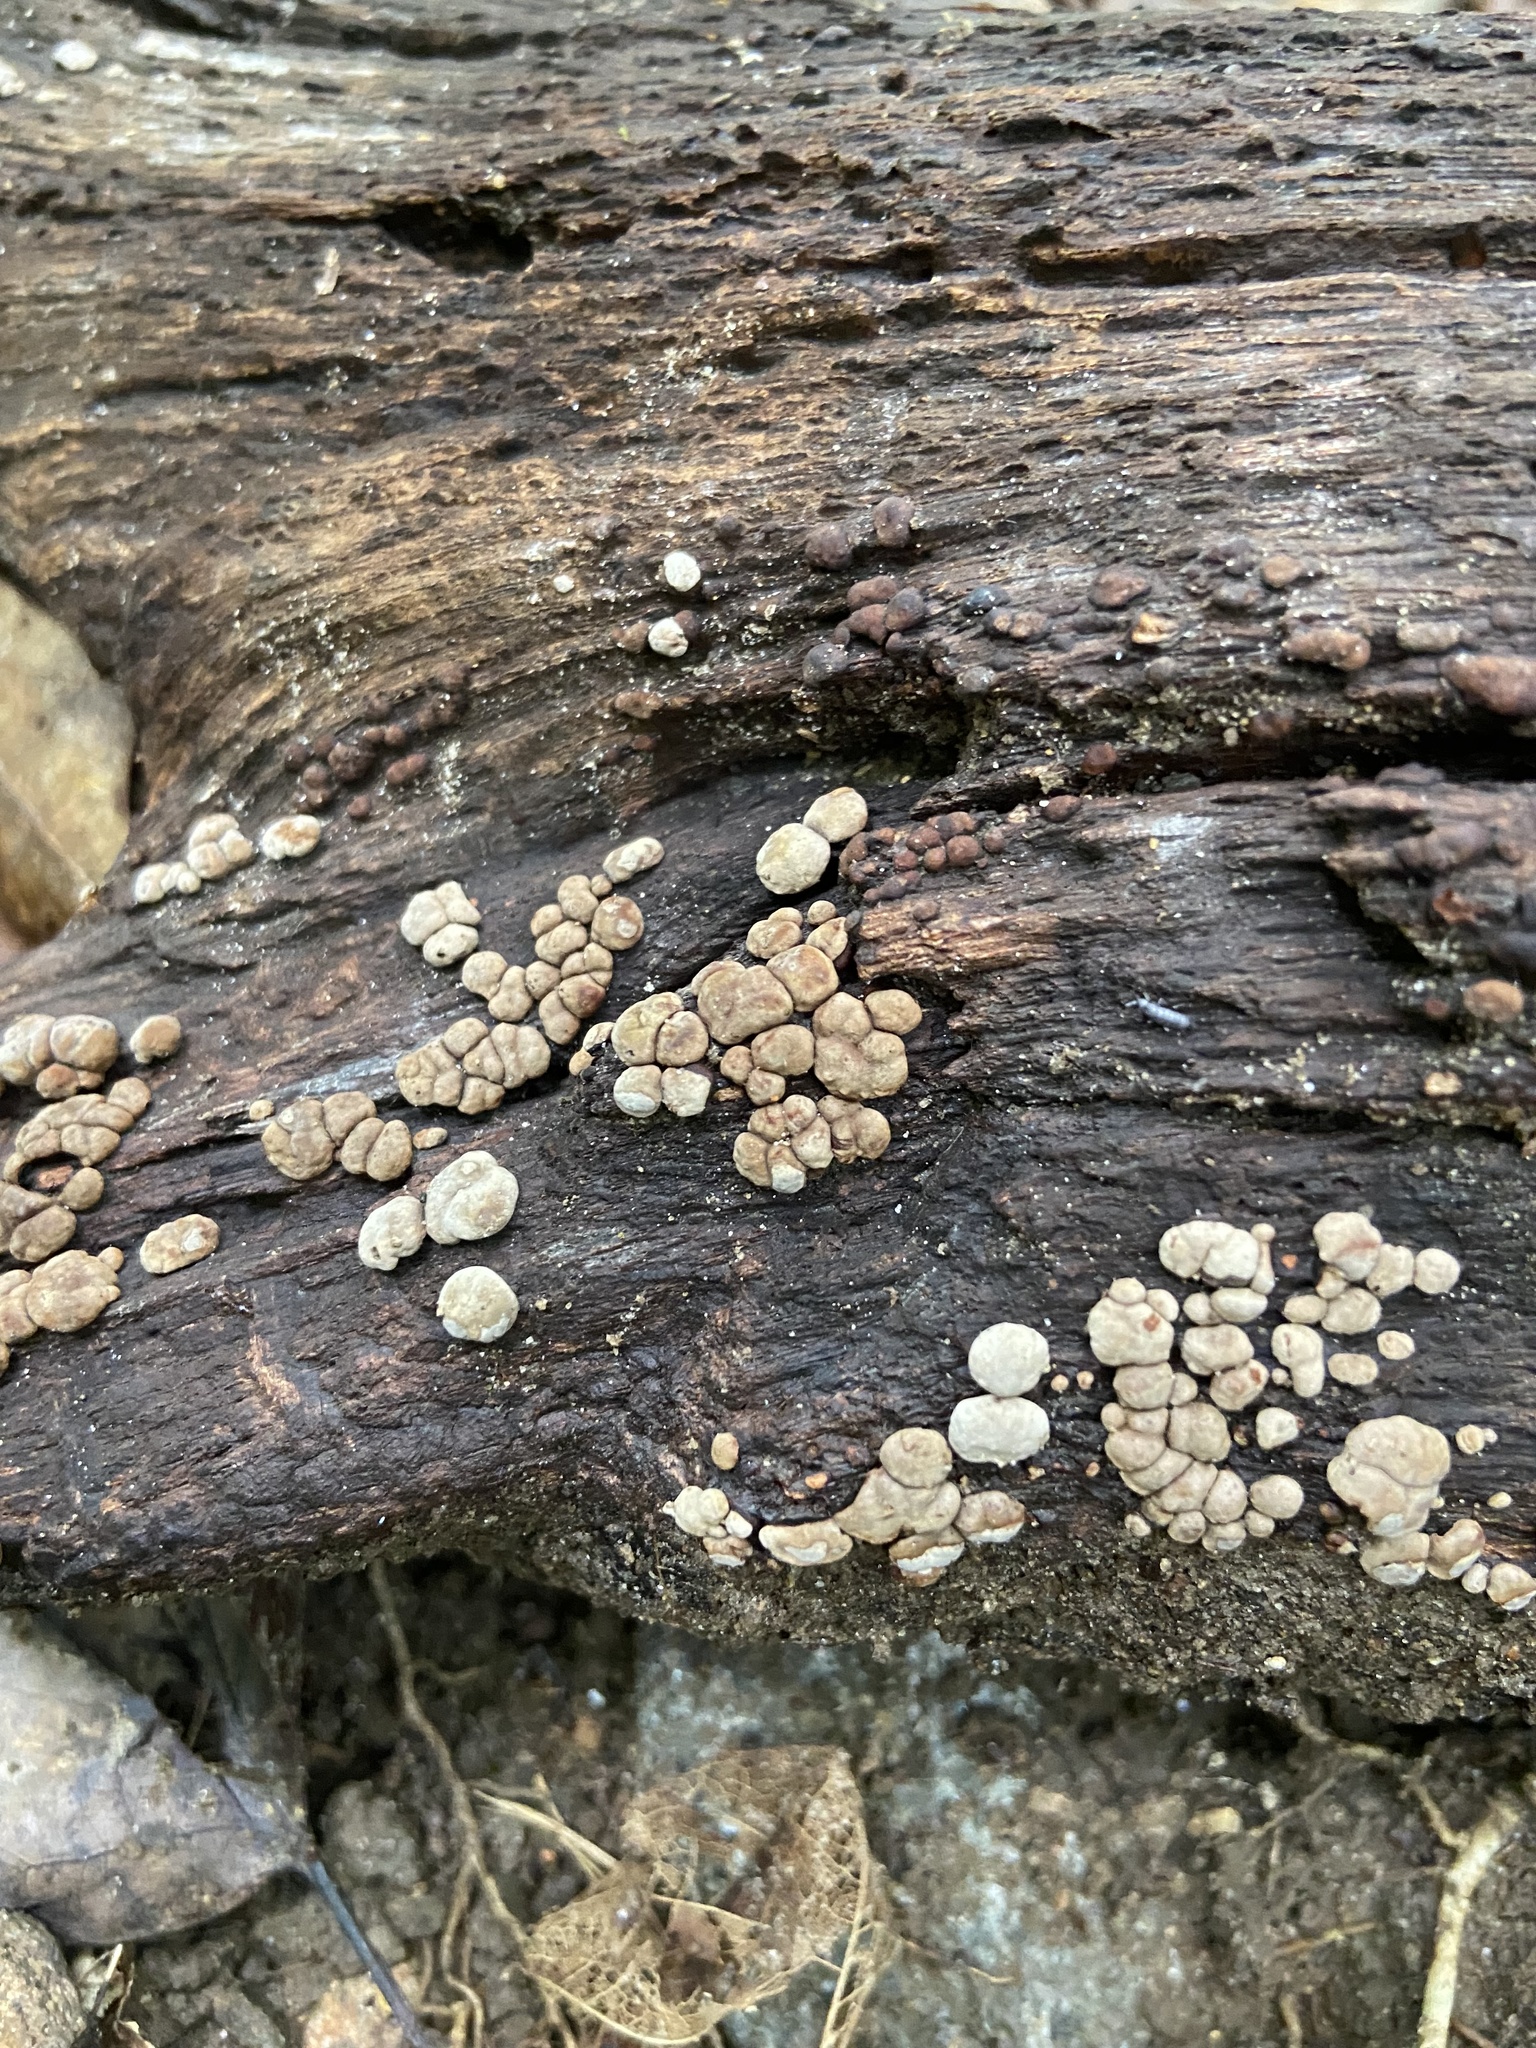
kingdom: Fungi
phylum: Basidiomycota
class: Agaricomycetes
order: Russulales
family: Stereaceae
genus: Xylobolus
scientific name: Xylobolus frustulatus
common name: Ceramic parchment
